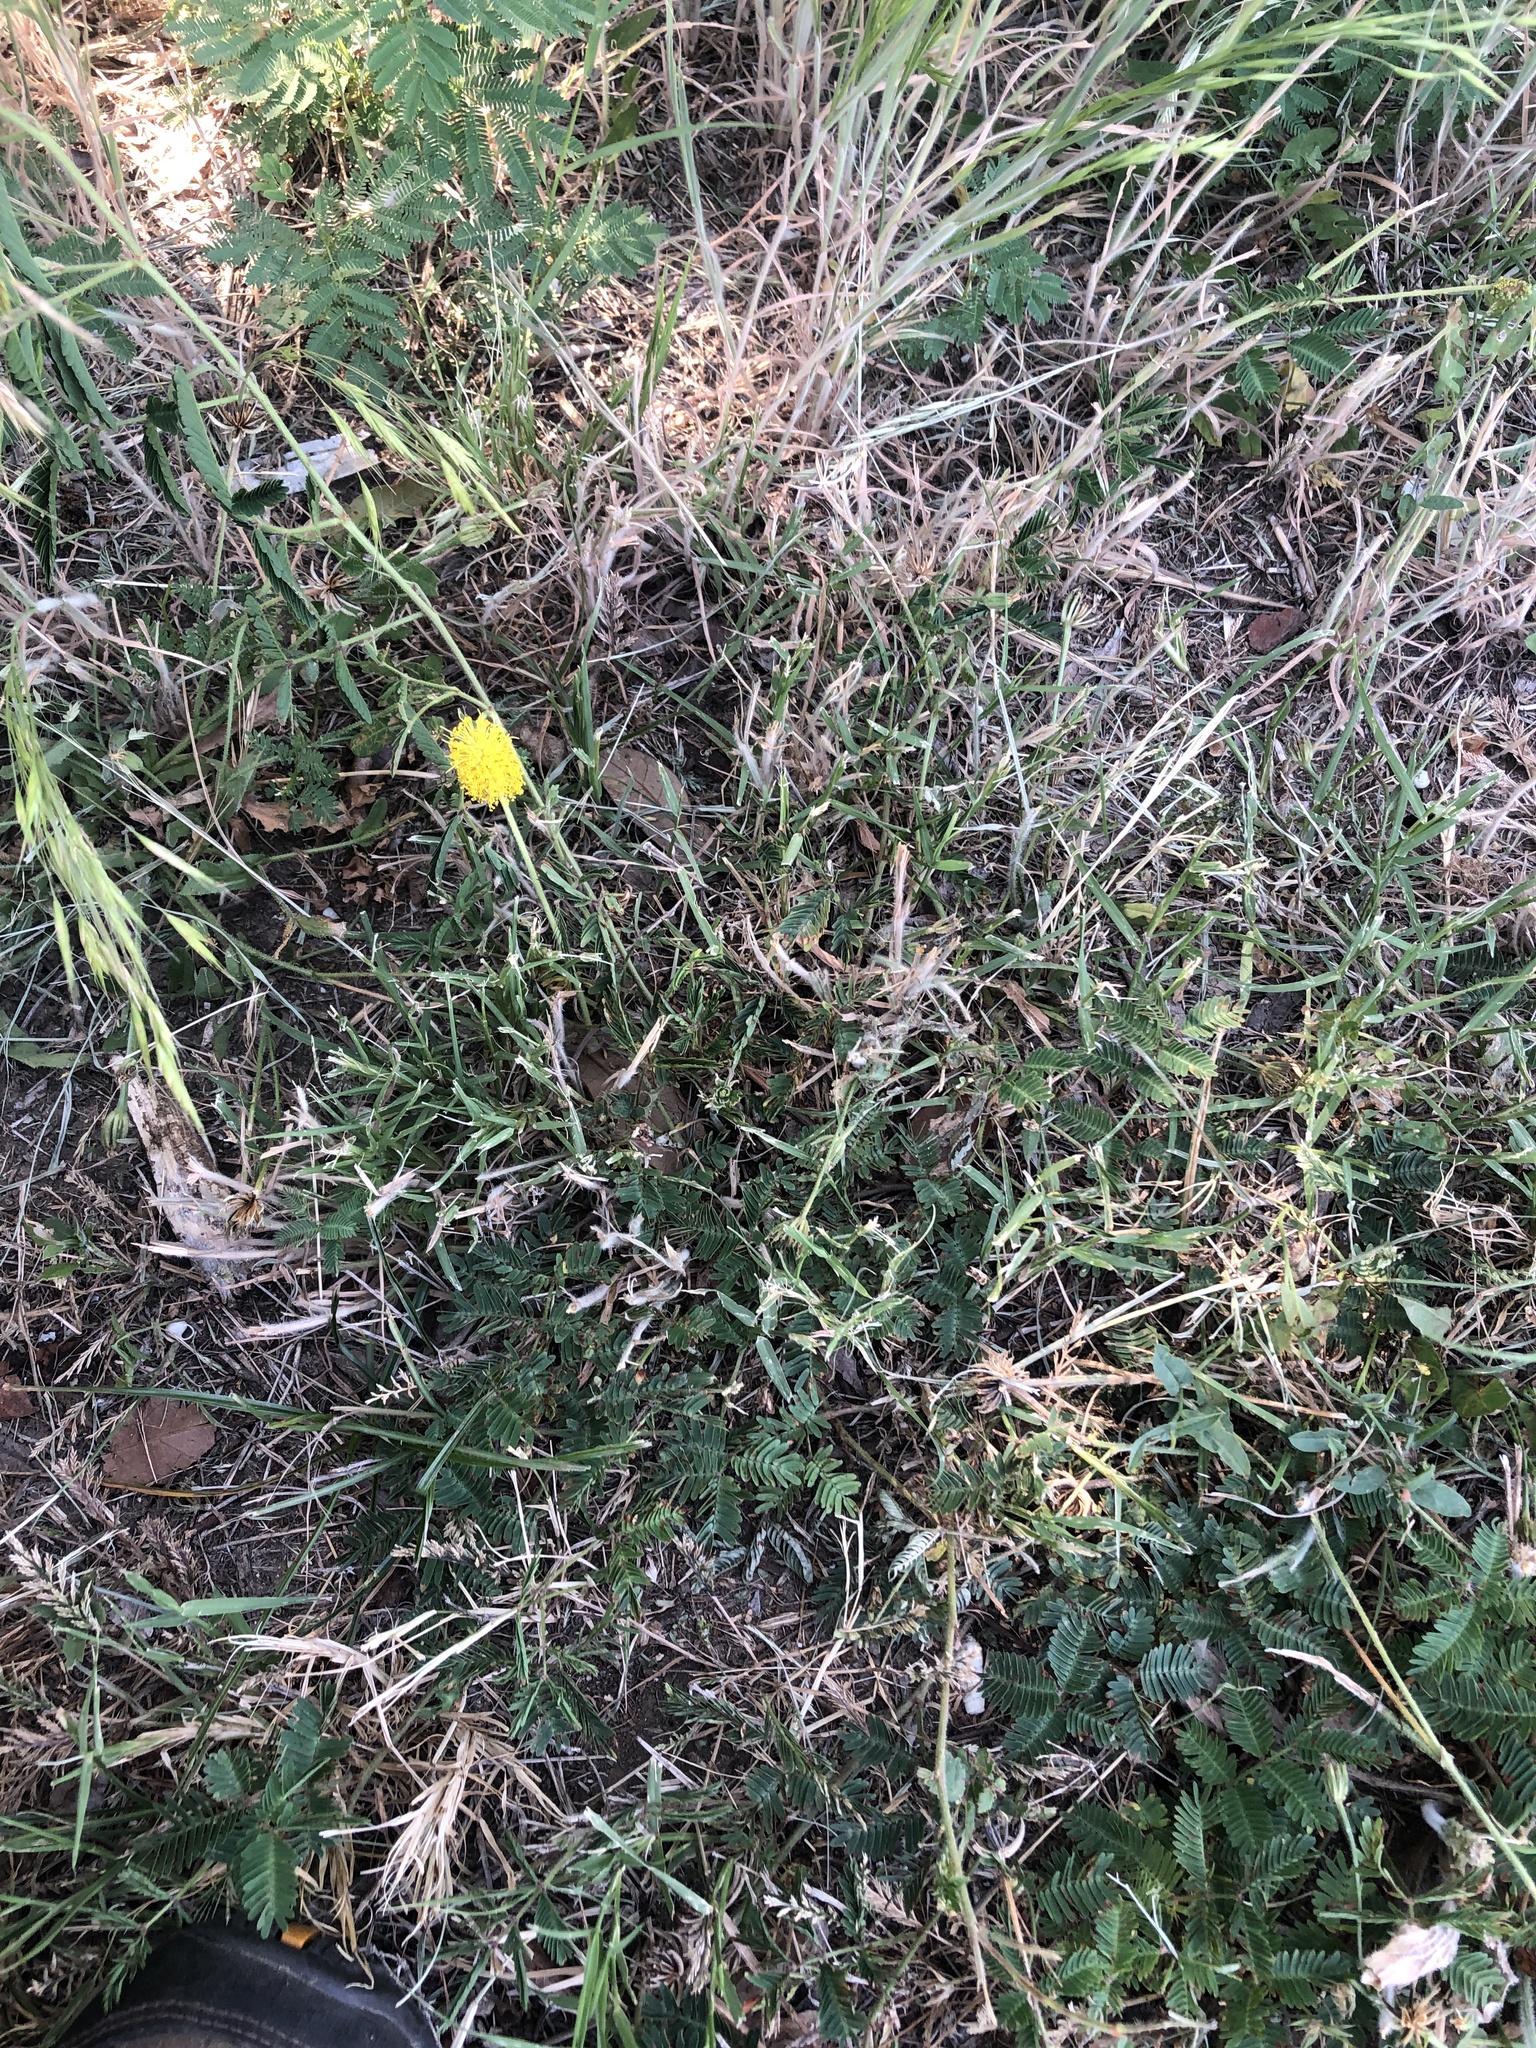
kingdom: Plantae
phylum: Tracheophyta
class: Magnoliopsida
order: Fabales
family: Fabaceae
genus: Neptunia
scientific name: Neptunia lutea
